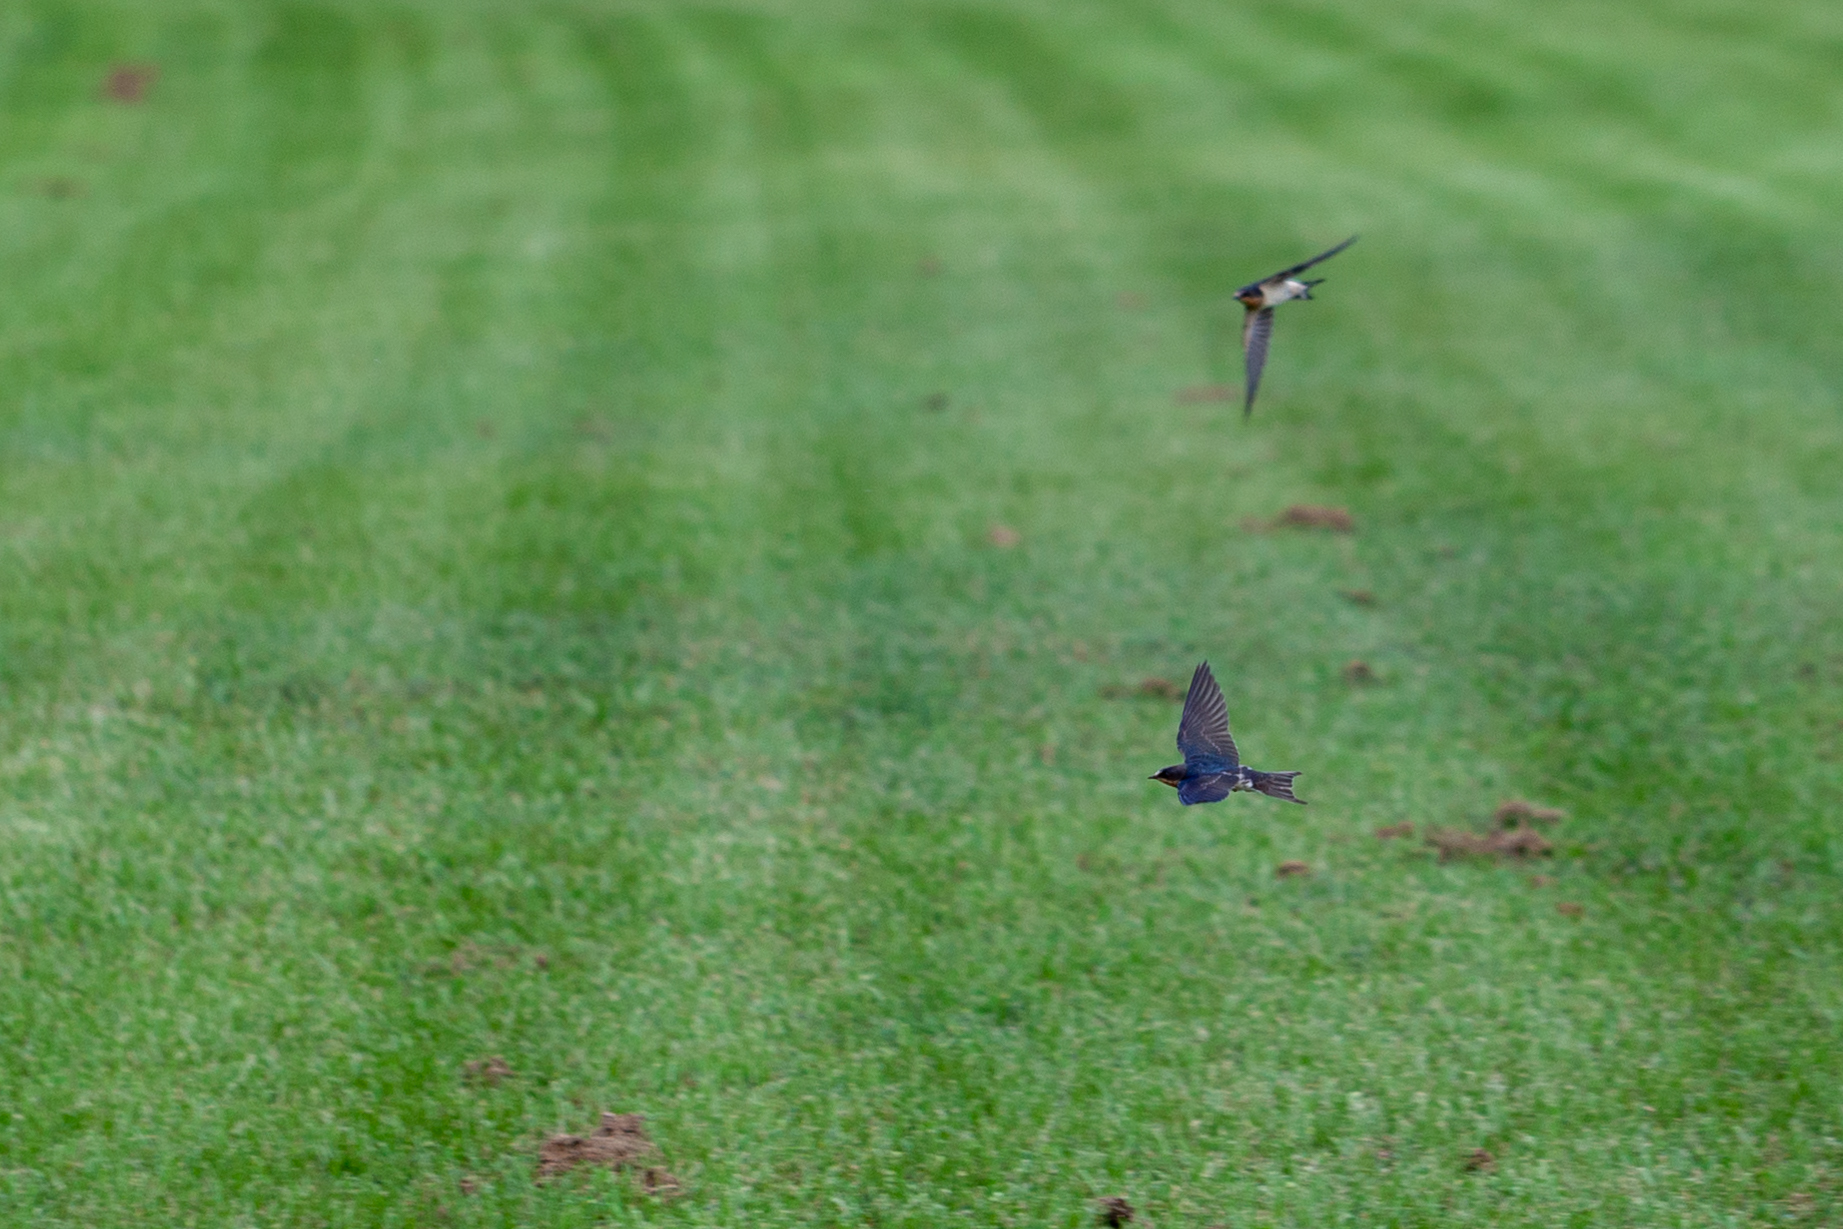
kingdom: Animalia
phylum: Chordata
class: Aves
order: Passeriformes
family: Hirundinidae
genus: Hirundo
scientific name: Hirundo rustica
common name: Barn swallow
